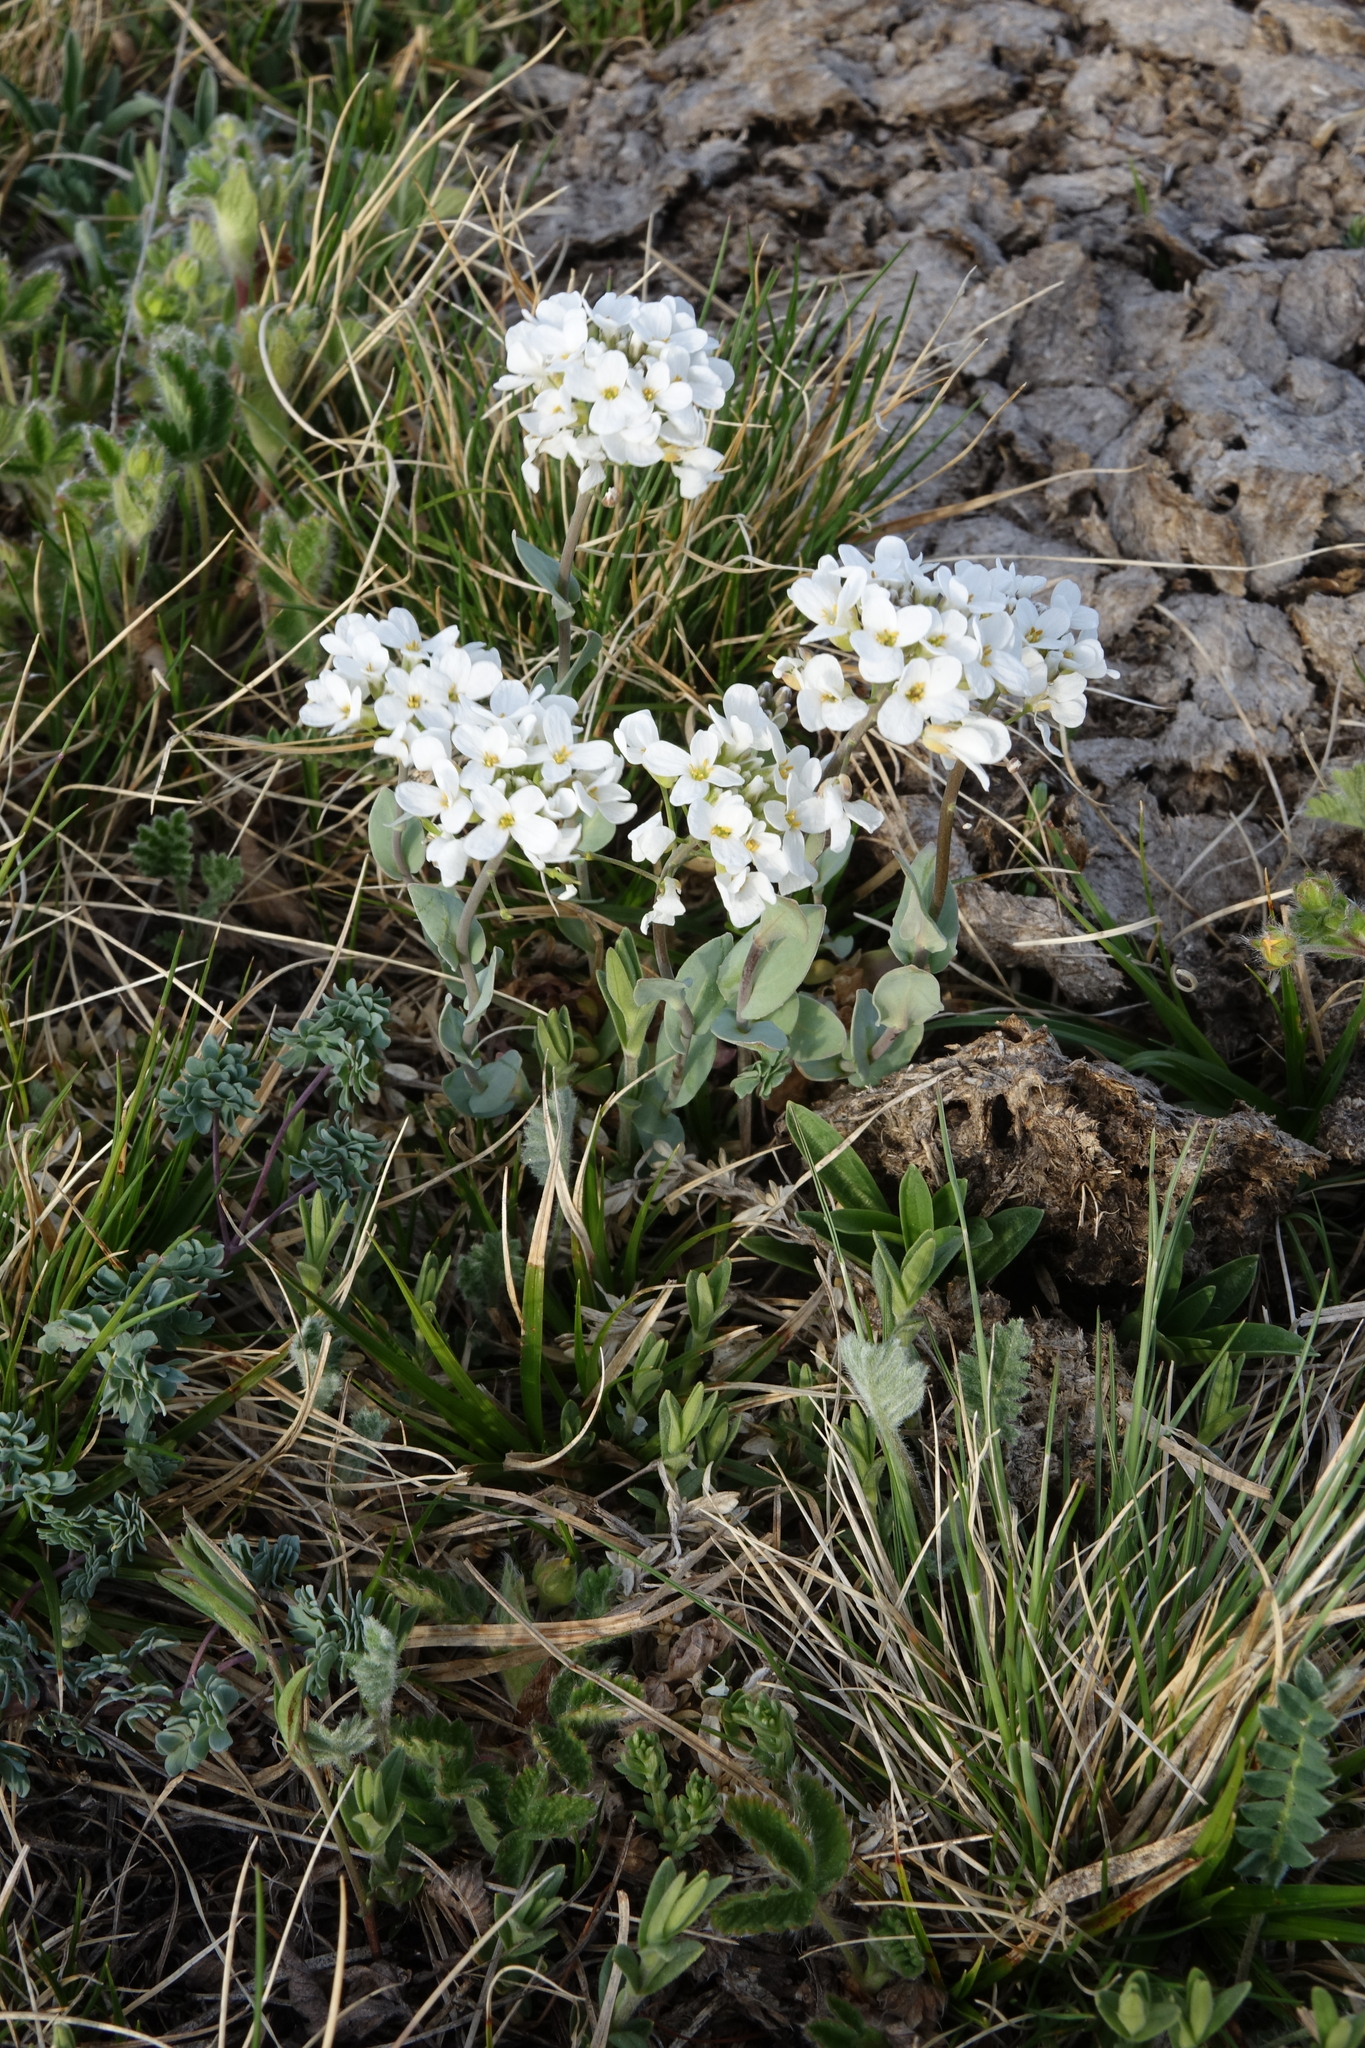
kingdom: Plantae
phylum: Tracheophyta
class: Magnoliopsida
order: Brassicales
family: Brassicaceae
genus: Noccaea
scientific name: Noccaea thlaspidioides
